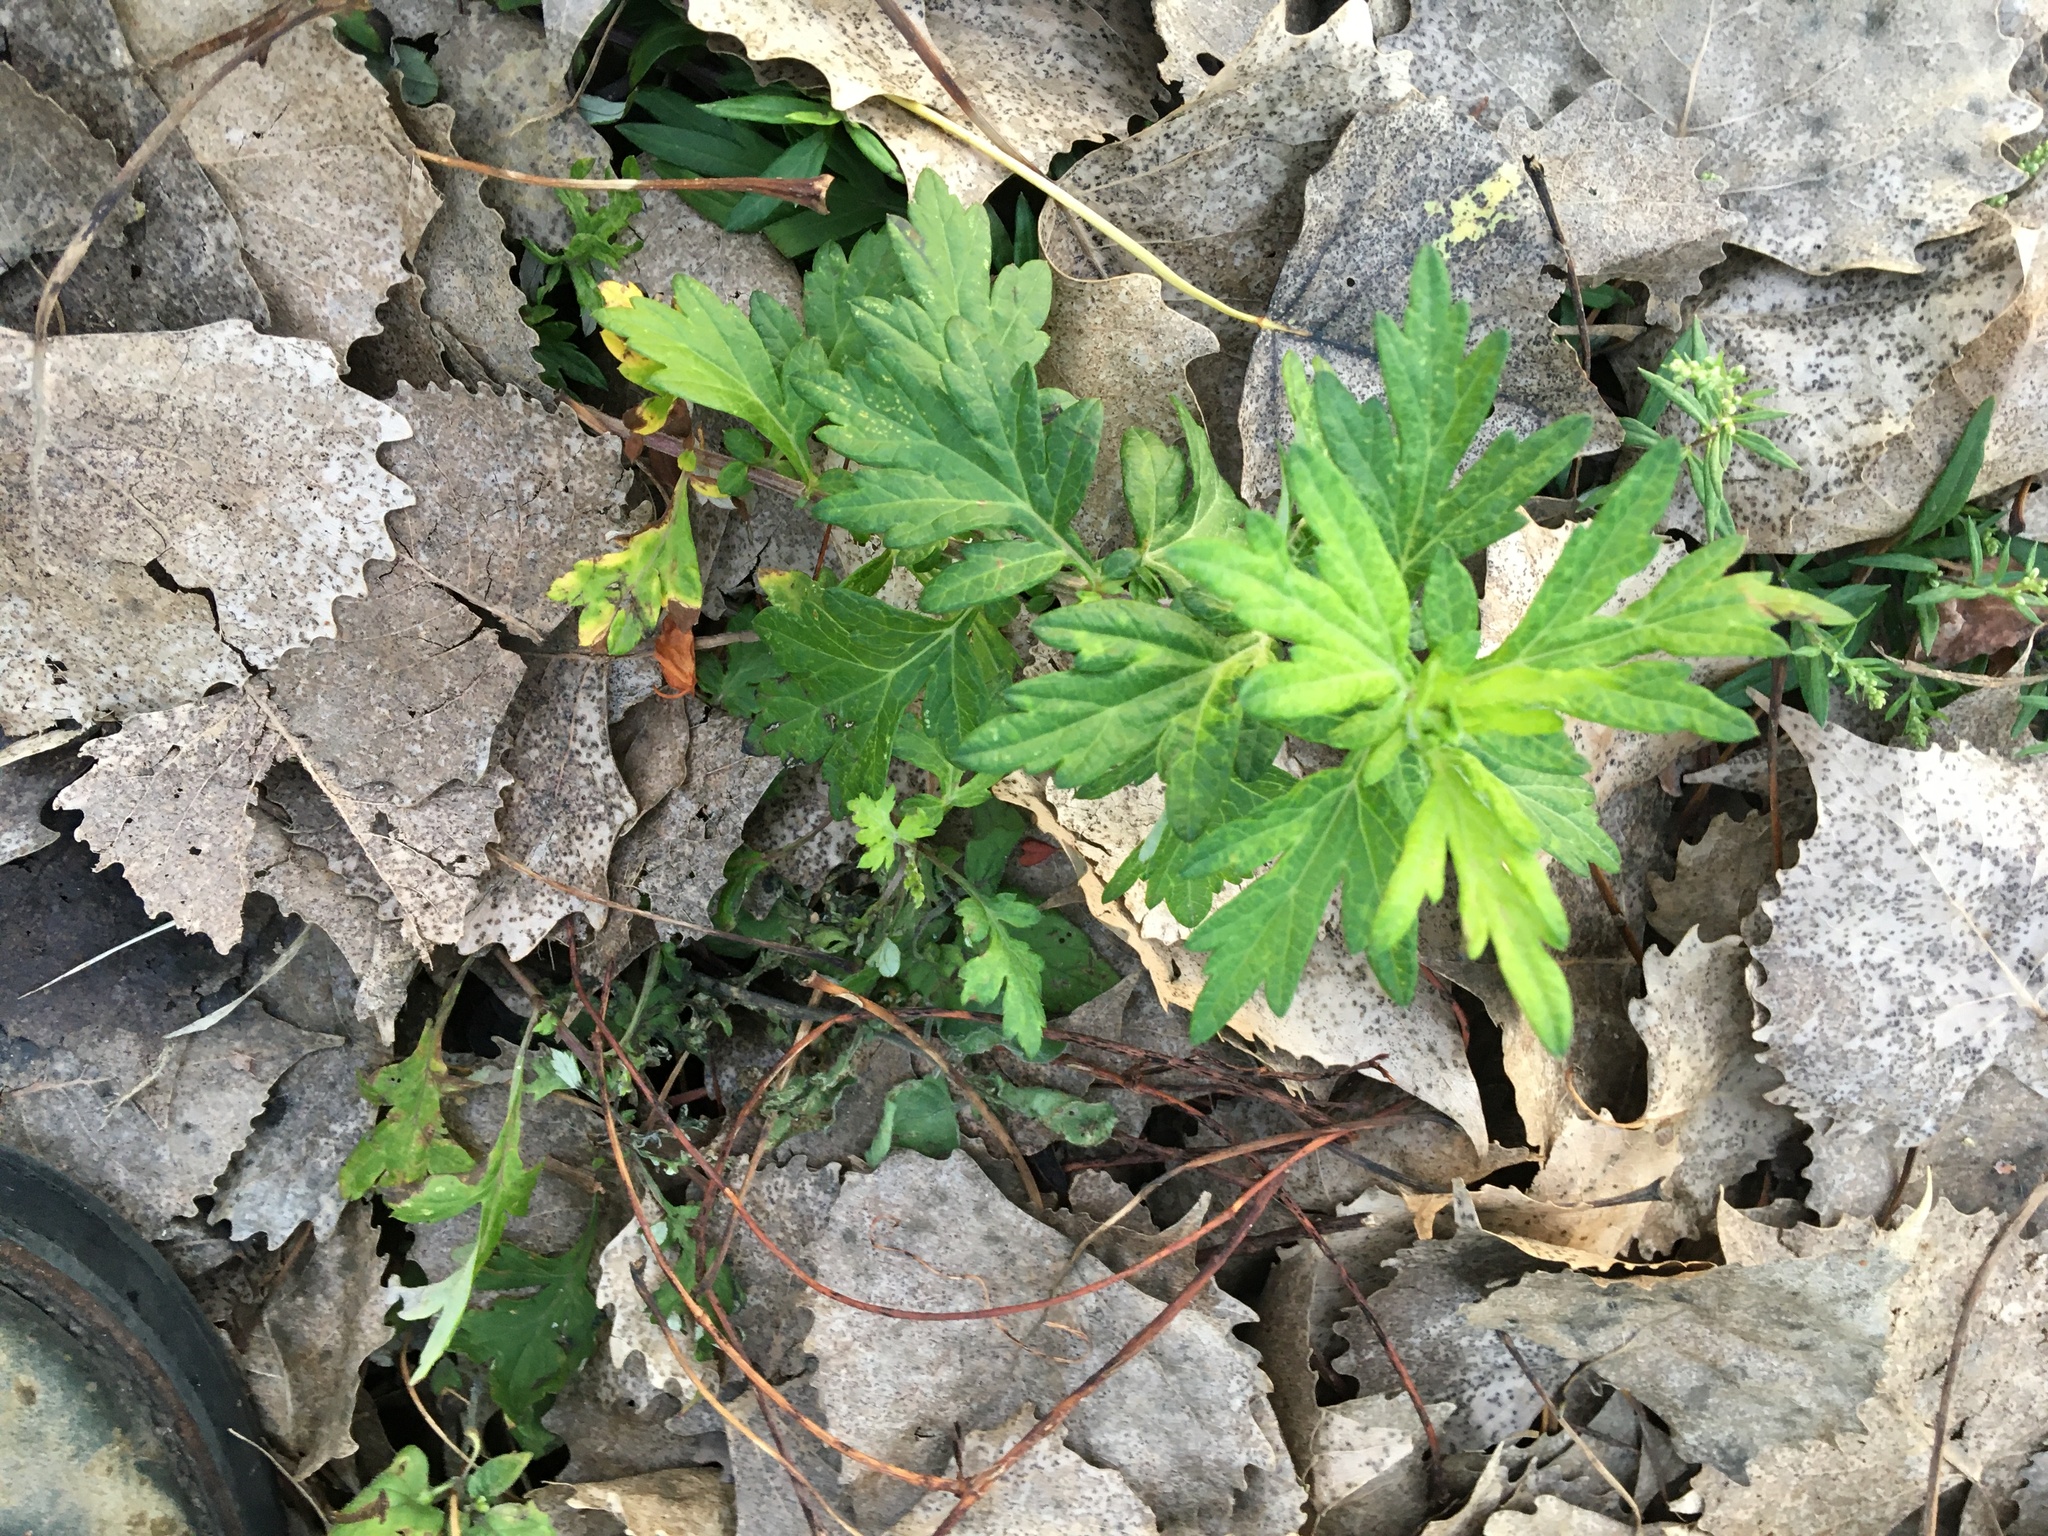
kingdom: Plantae
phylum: Tracheophyta
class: Magnoliopsida
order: Asterales
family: Asteraceae
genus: Artemisia
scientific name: Artemisia vulgaris
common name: Mugwort
